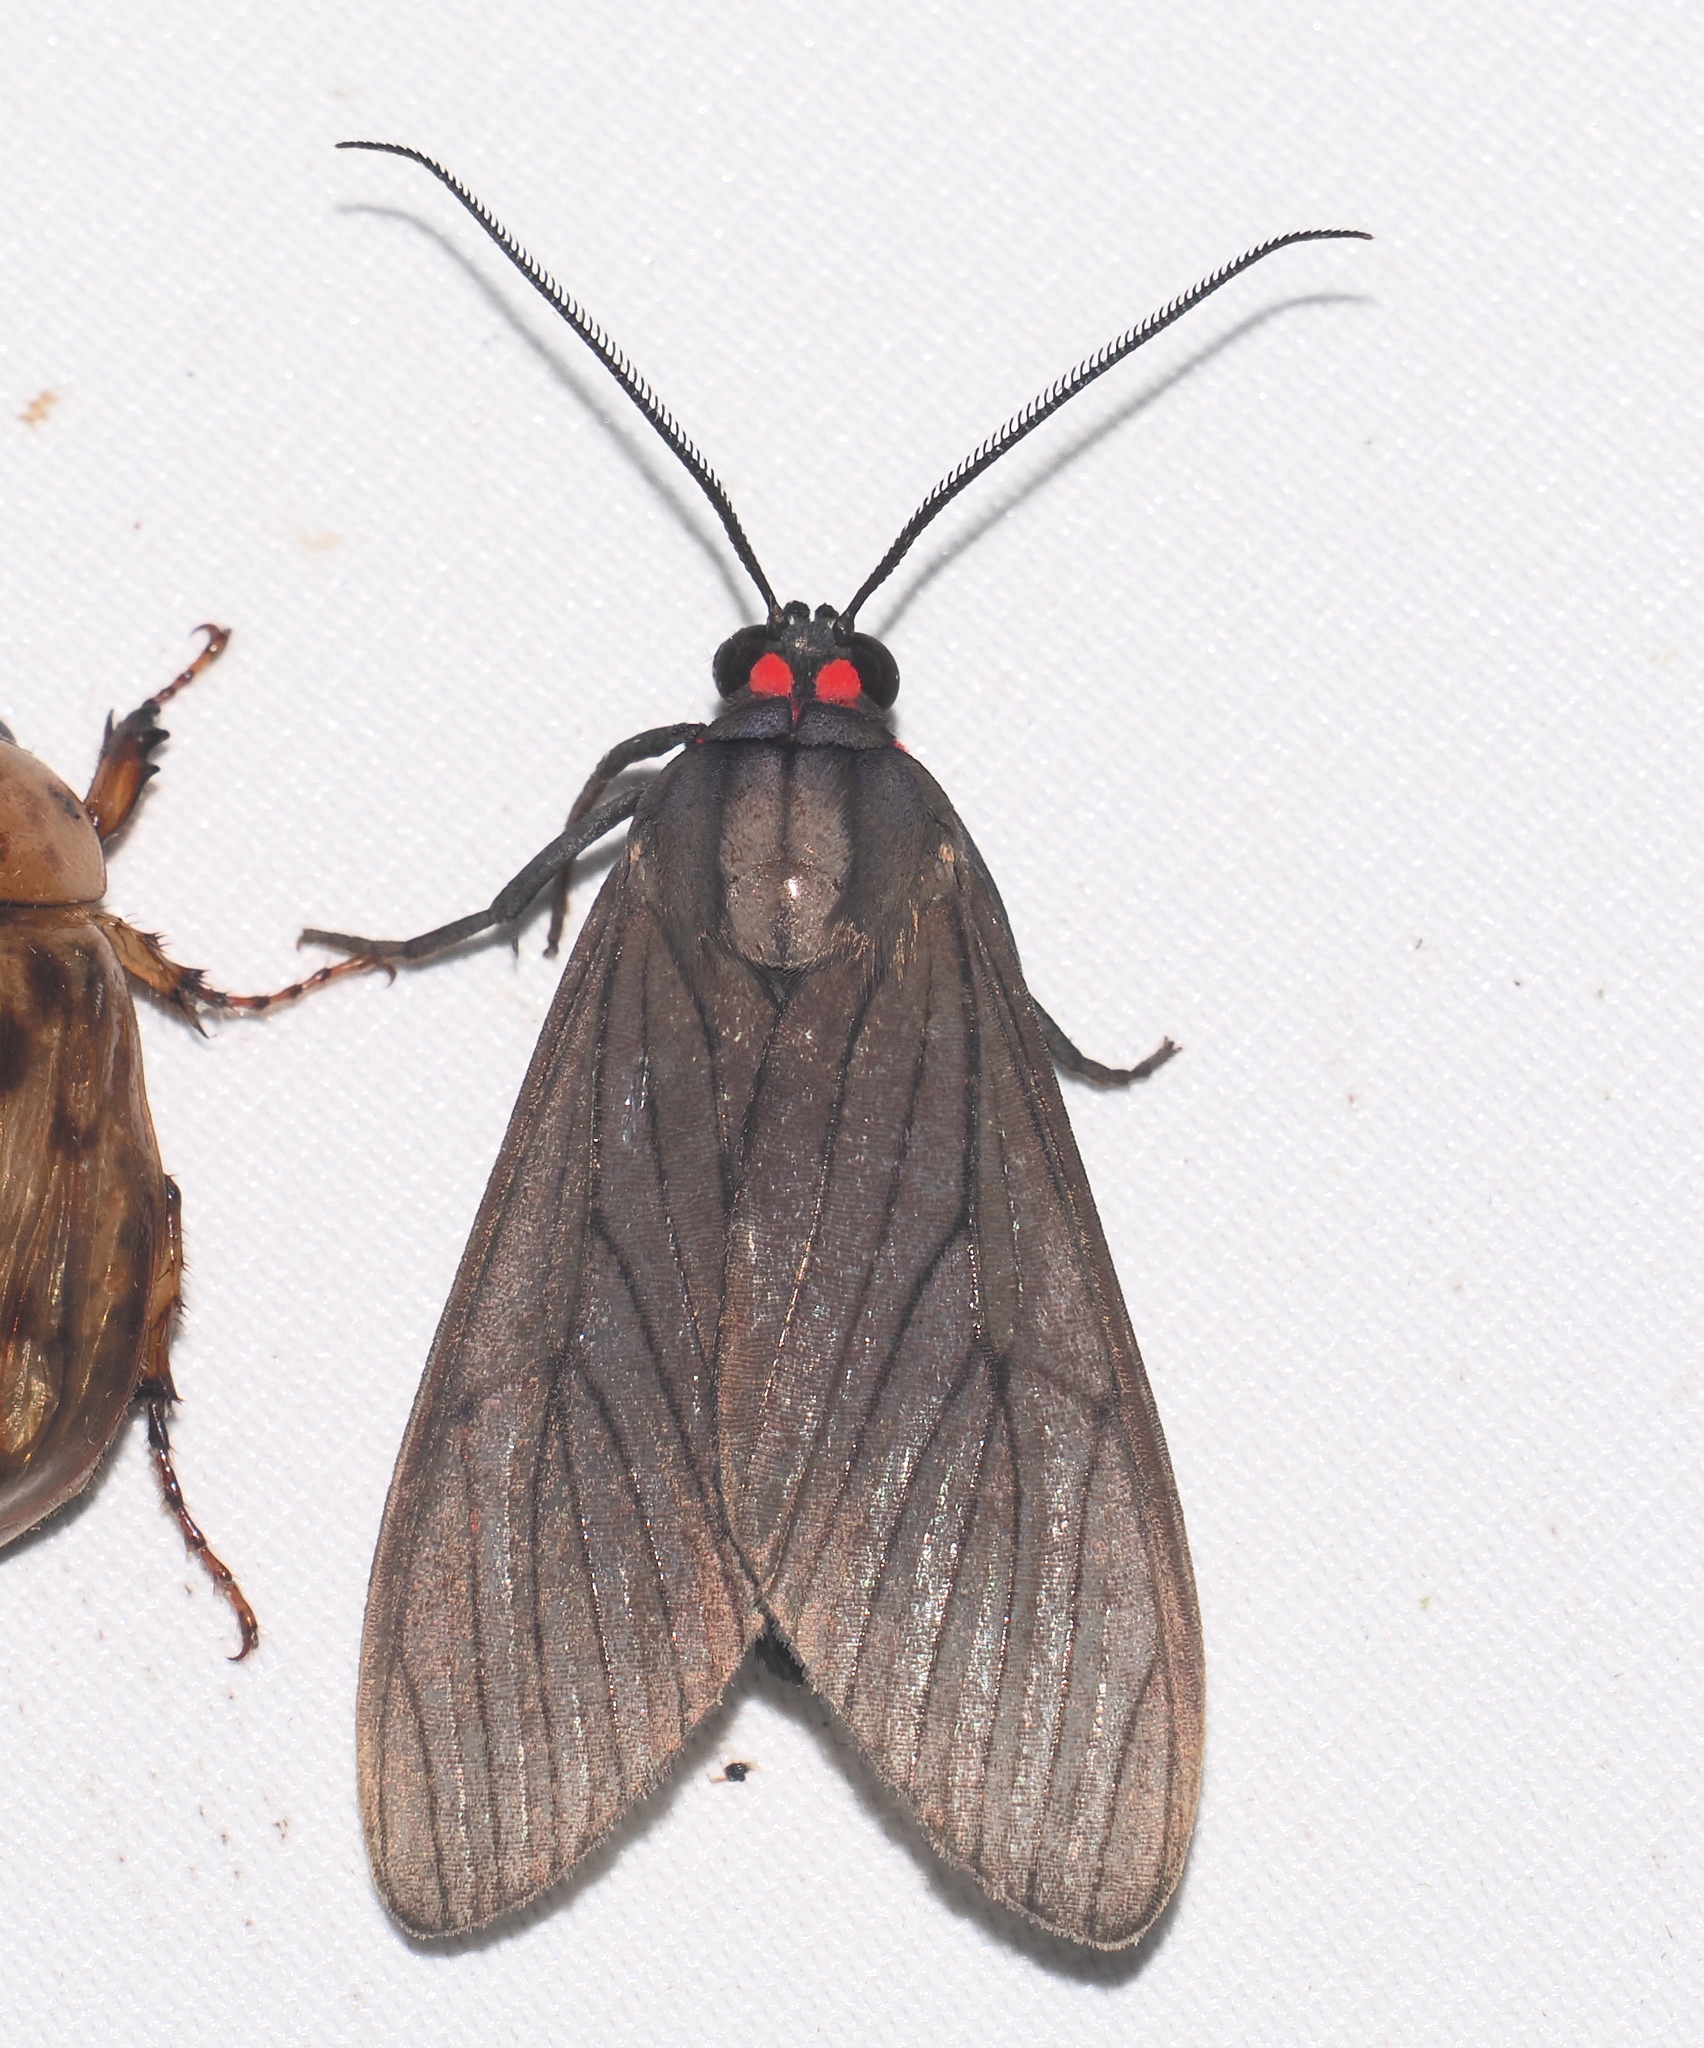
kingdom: Animalia
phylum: Arthropoda
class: Insecta
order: Lepidoptera
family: Erebidae
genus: Episcepsis
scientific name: Episcepsis hypoleuca
